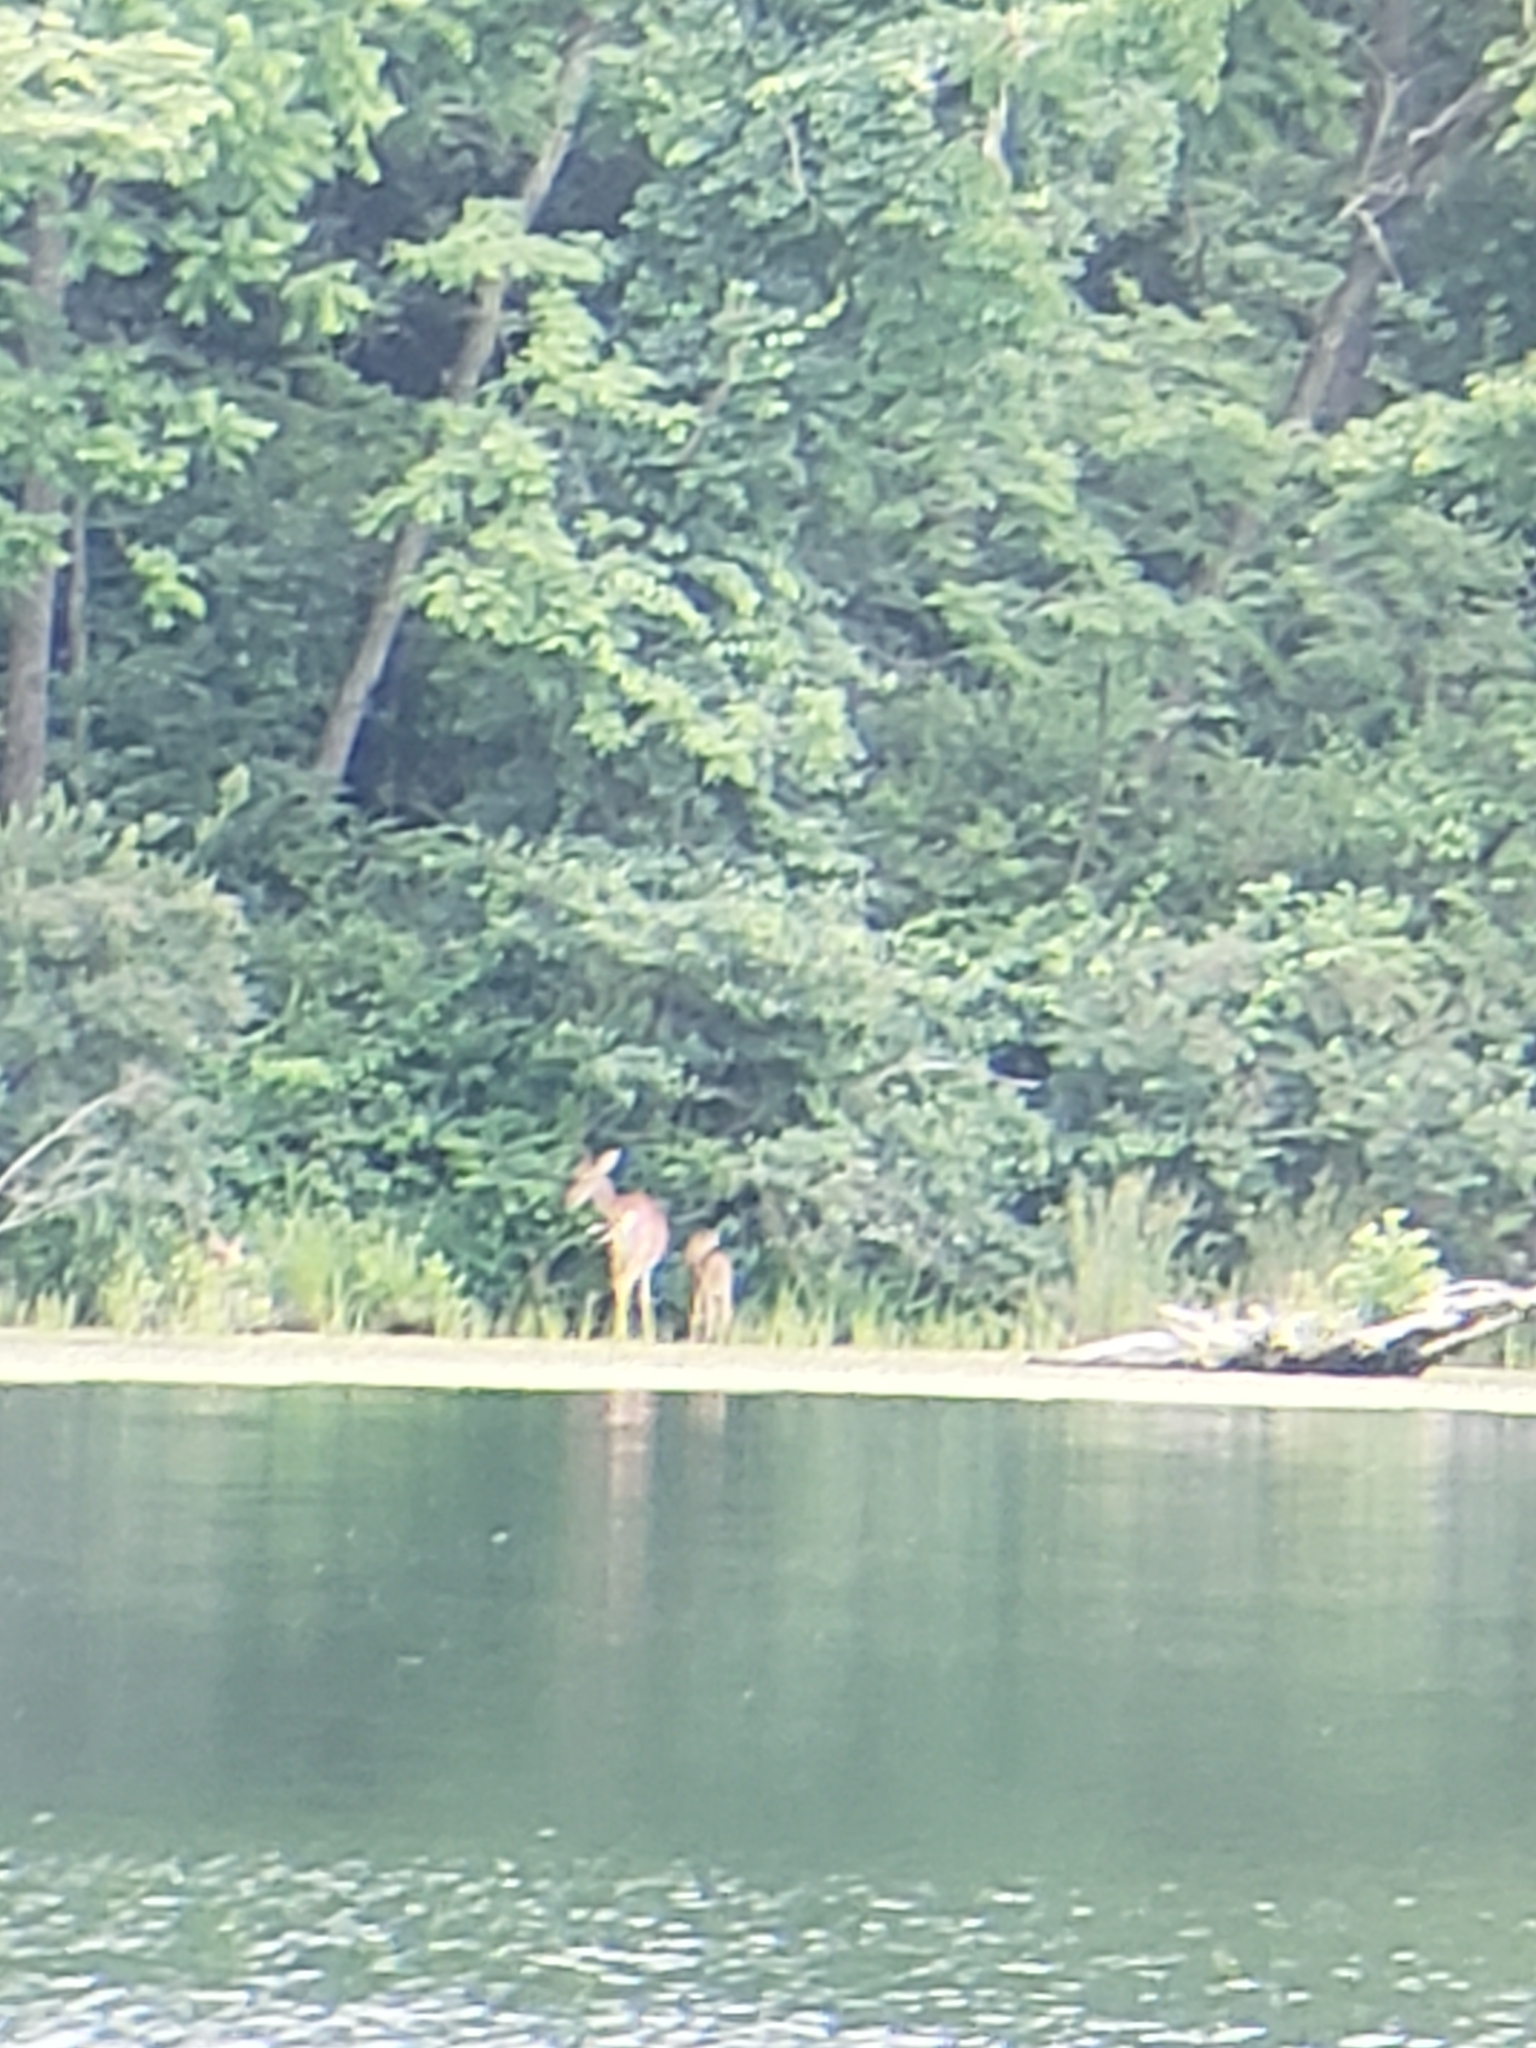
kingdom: Animalia
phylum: Chordata
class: Mammalia
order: Artiodactyla
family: Cervidae
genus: Odocoileus
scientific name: Odocoileus virginianus
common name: White-tailed deer
